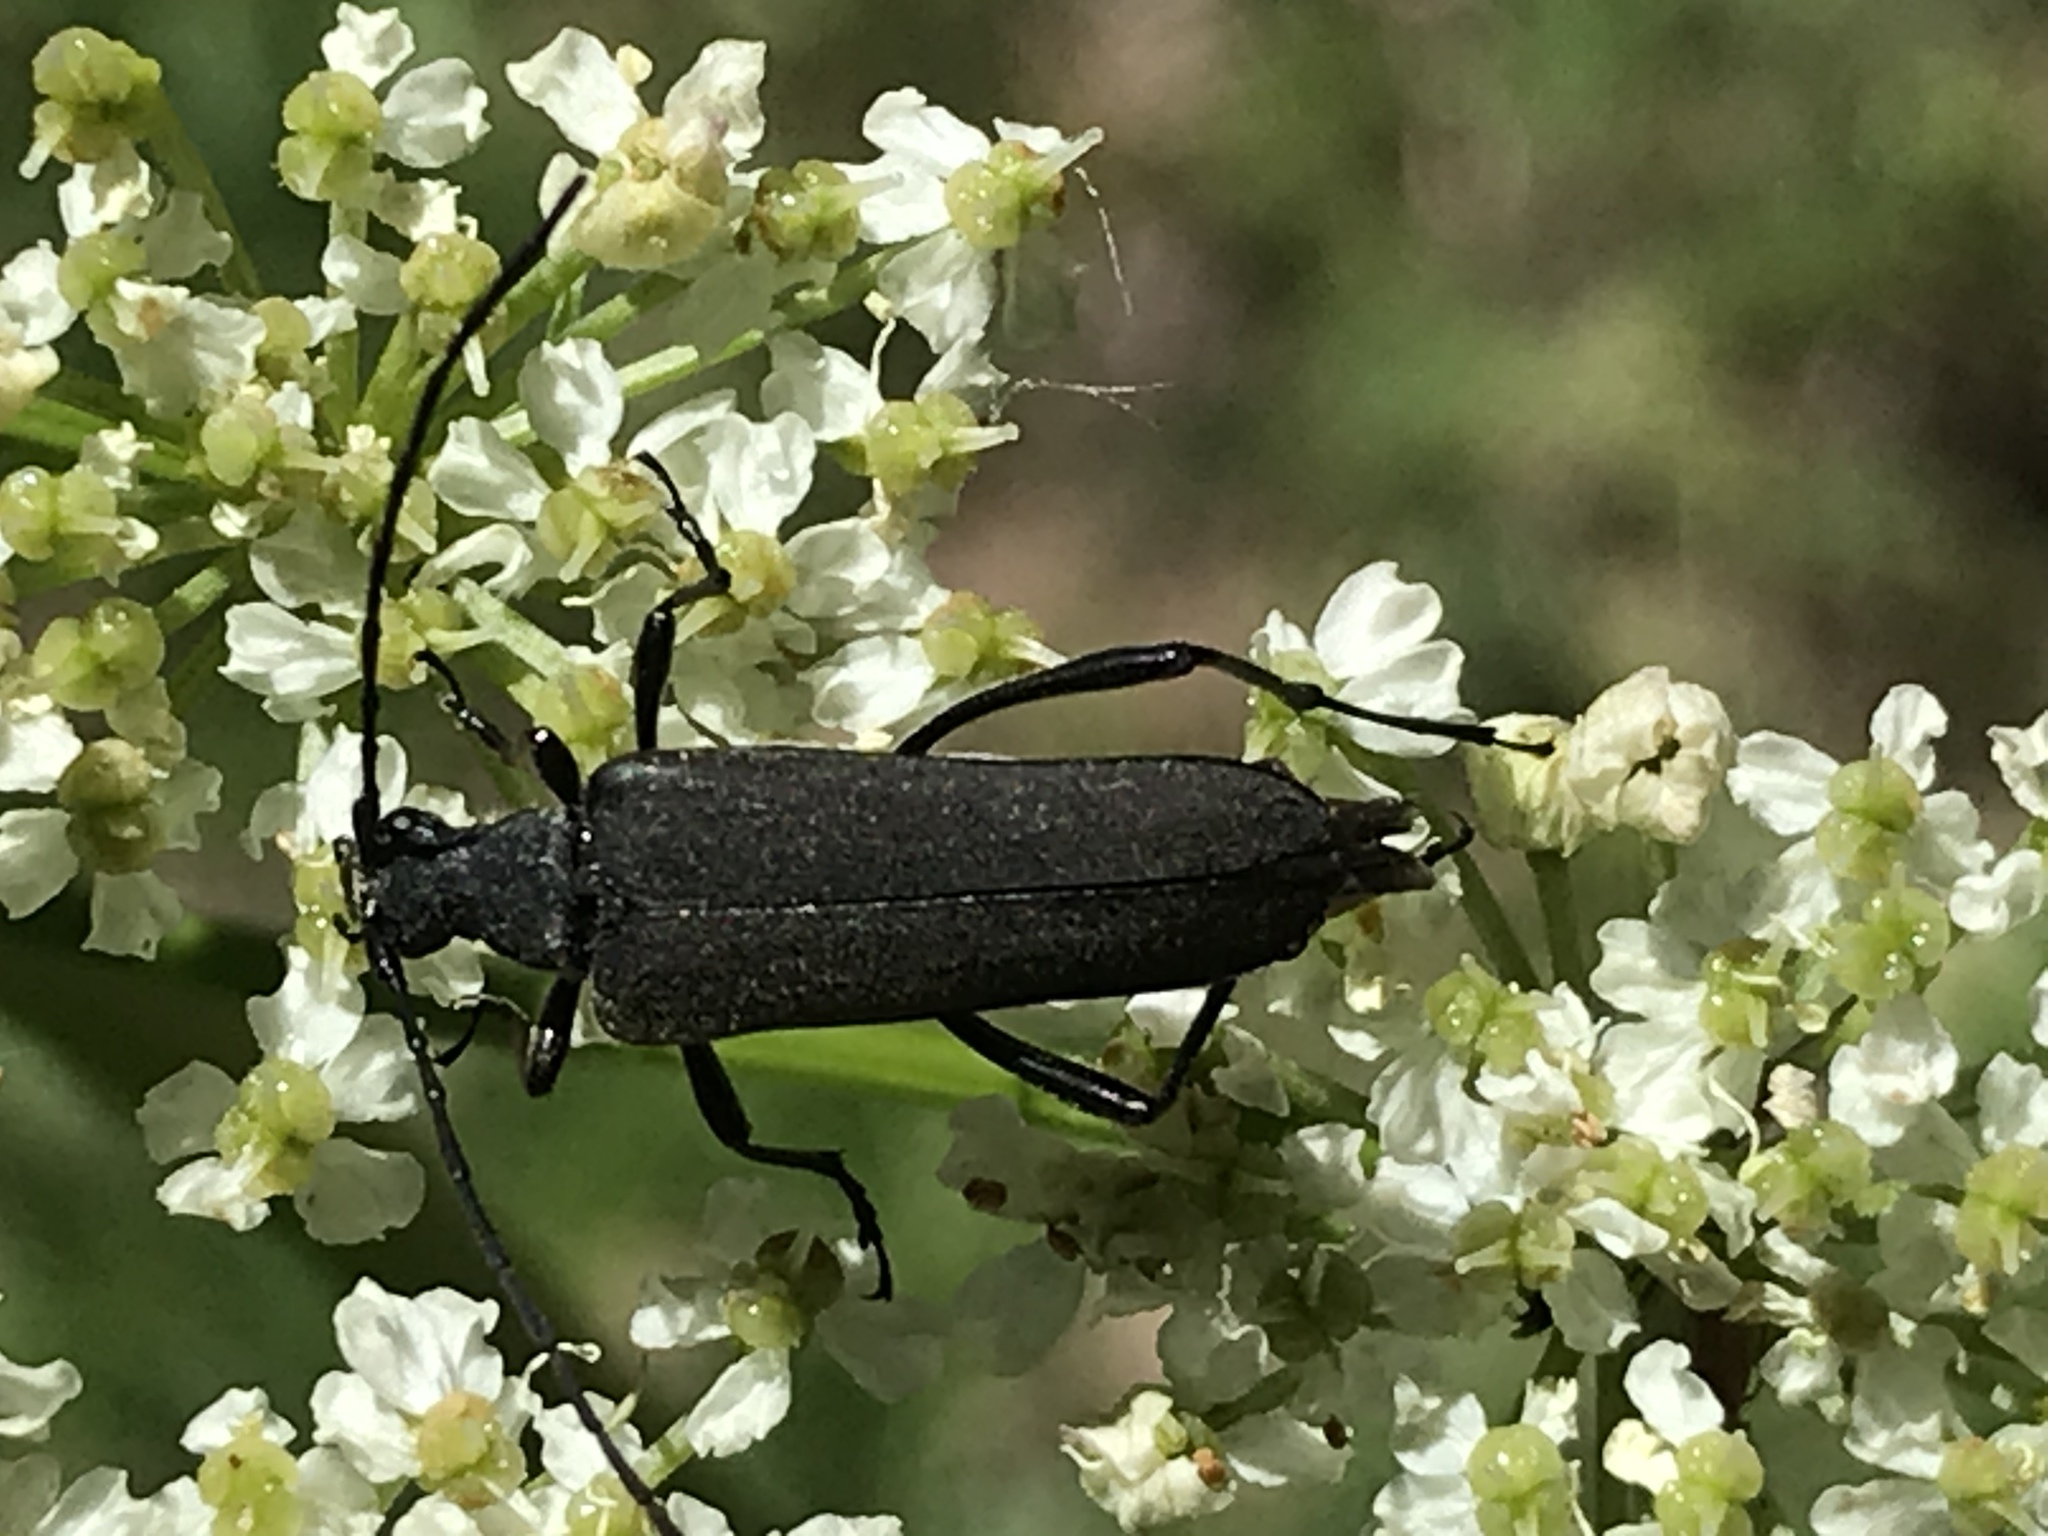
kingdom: Animalia
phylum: Arthropoda
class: Insecta
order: Coleoptera
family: Cerambycidae
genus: Trachysida
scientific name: Trachysida aspera
